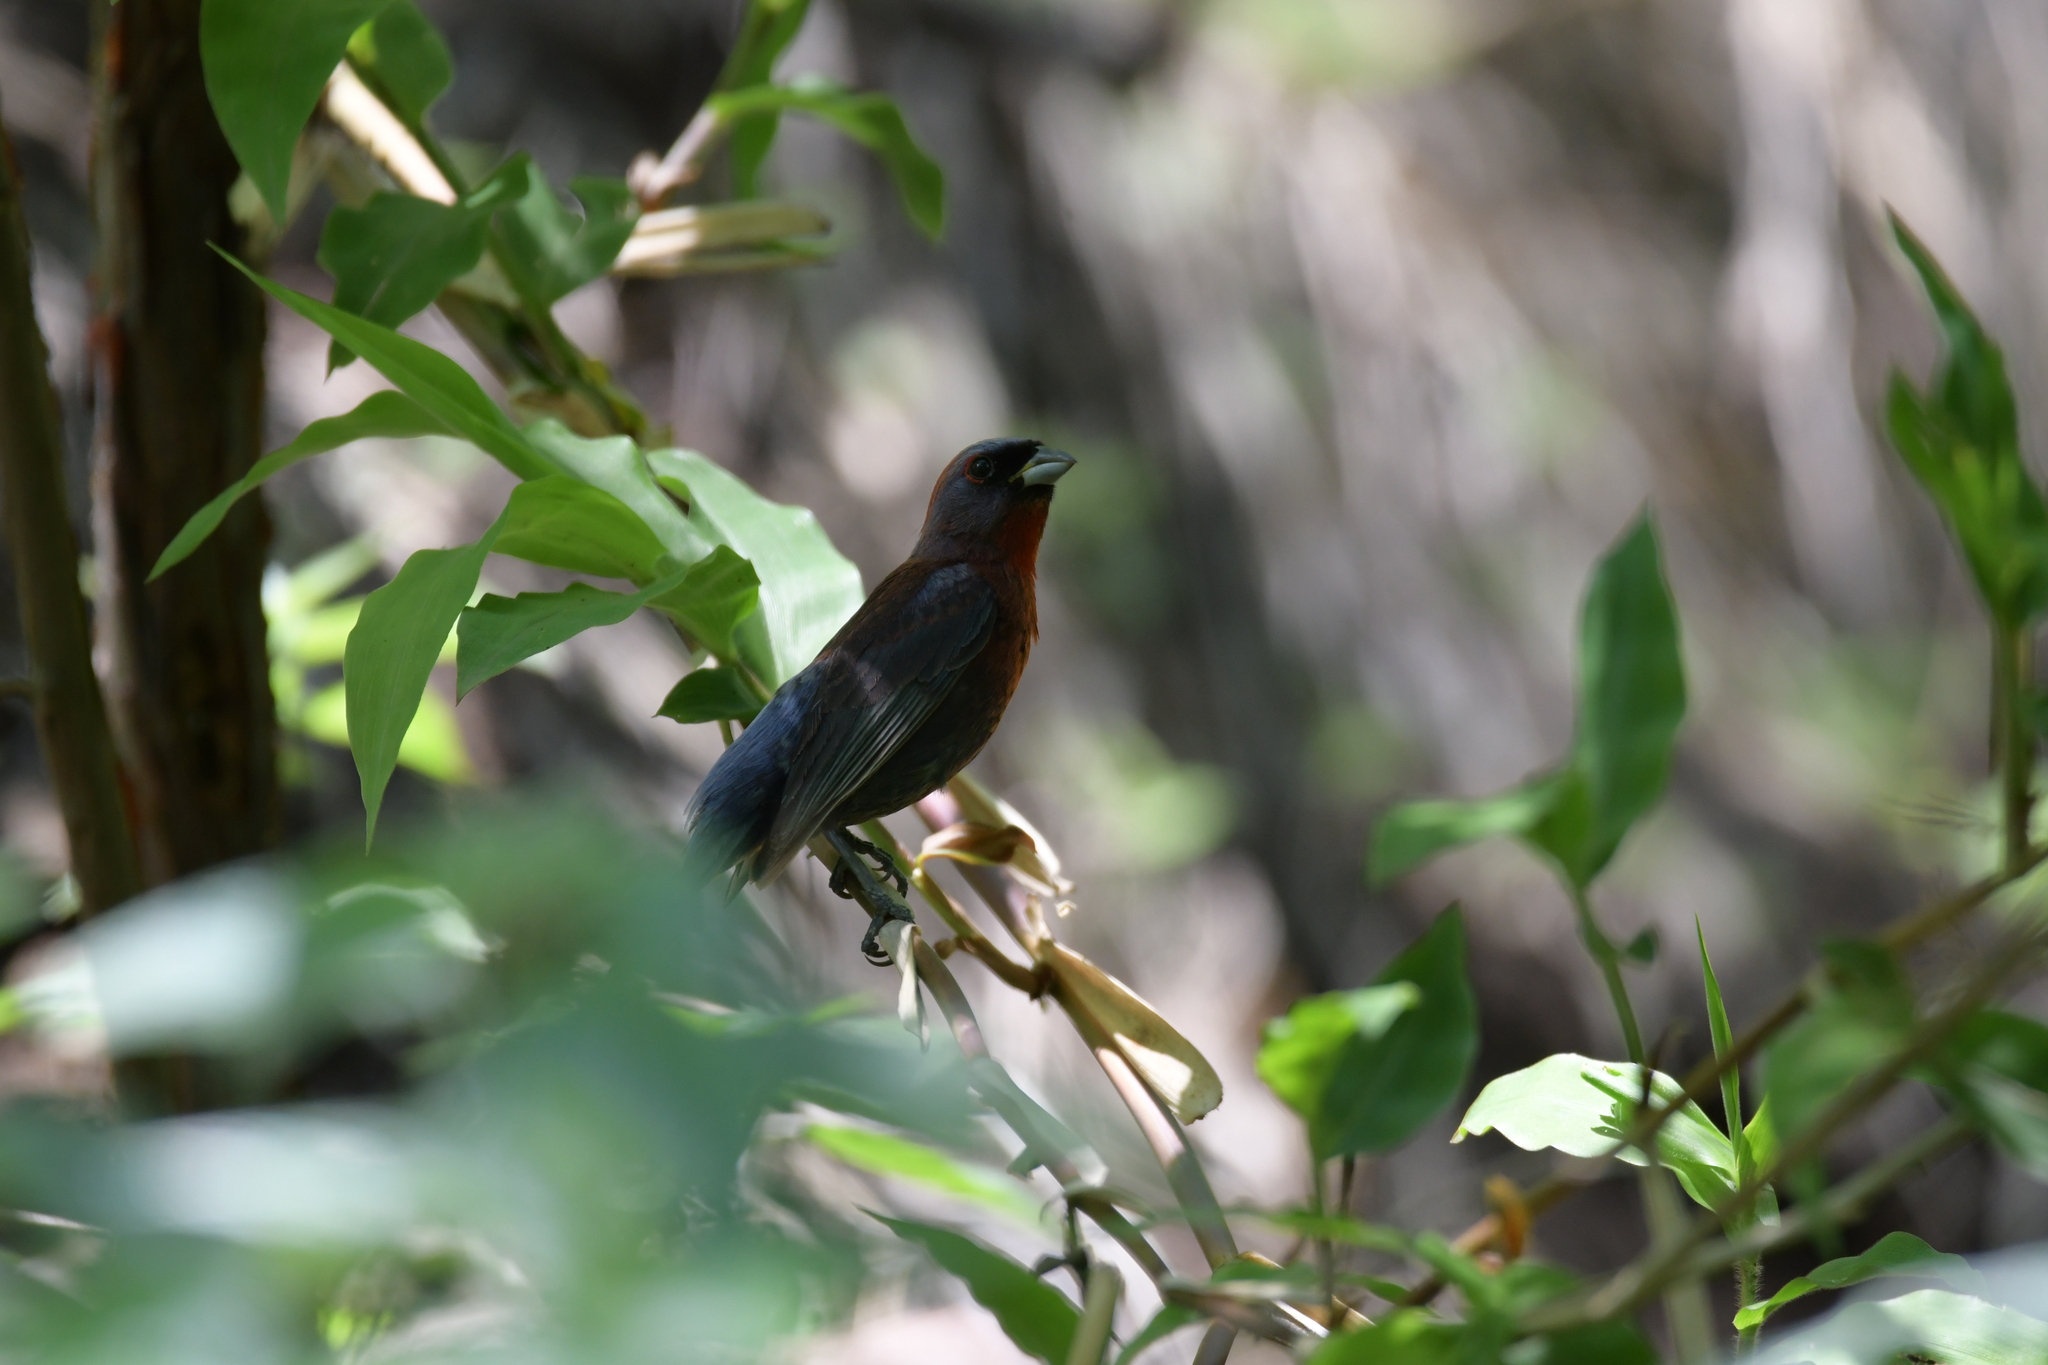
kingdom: Animalia
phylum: Chordata
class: Aves
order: Passeriformes
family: Cardinalidae
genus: Passerina
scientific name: Passerina versicolor
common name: Varied bunting
